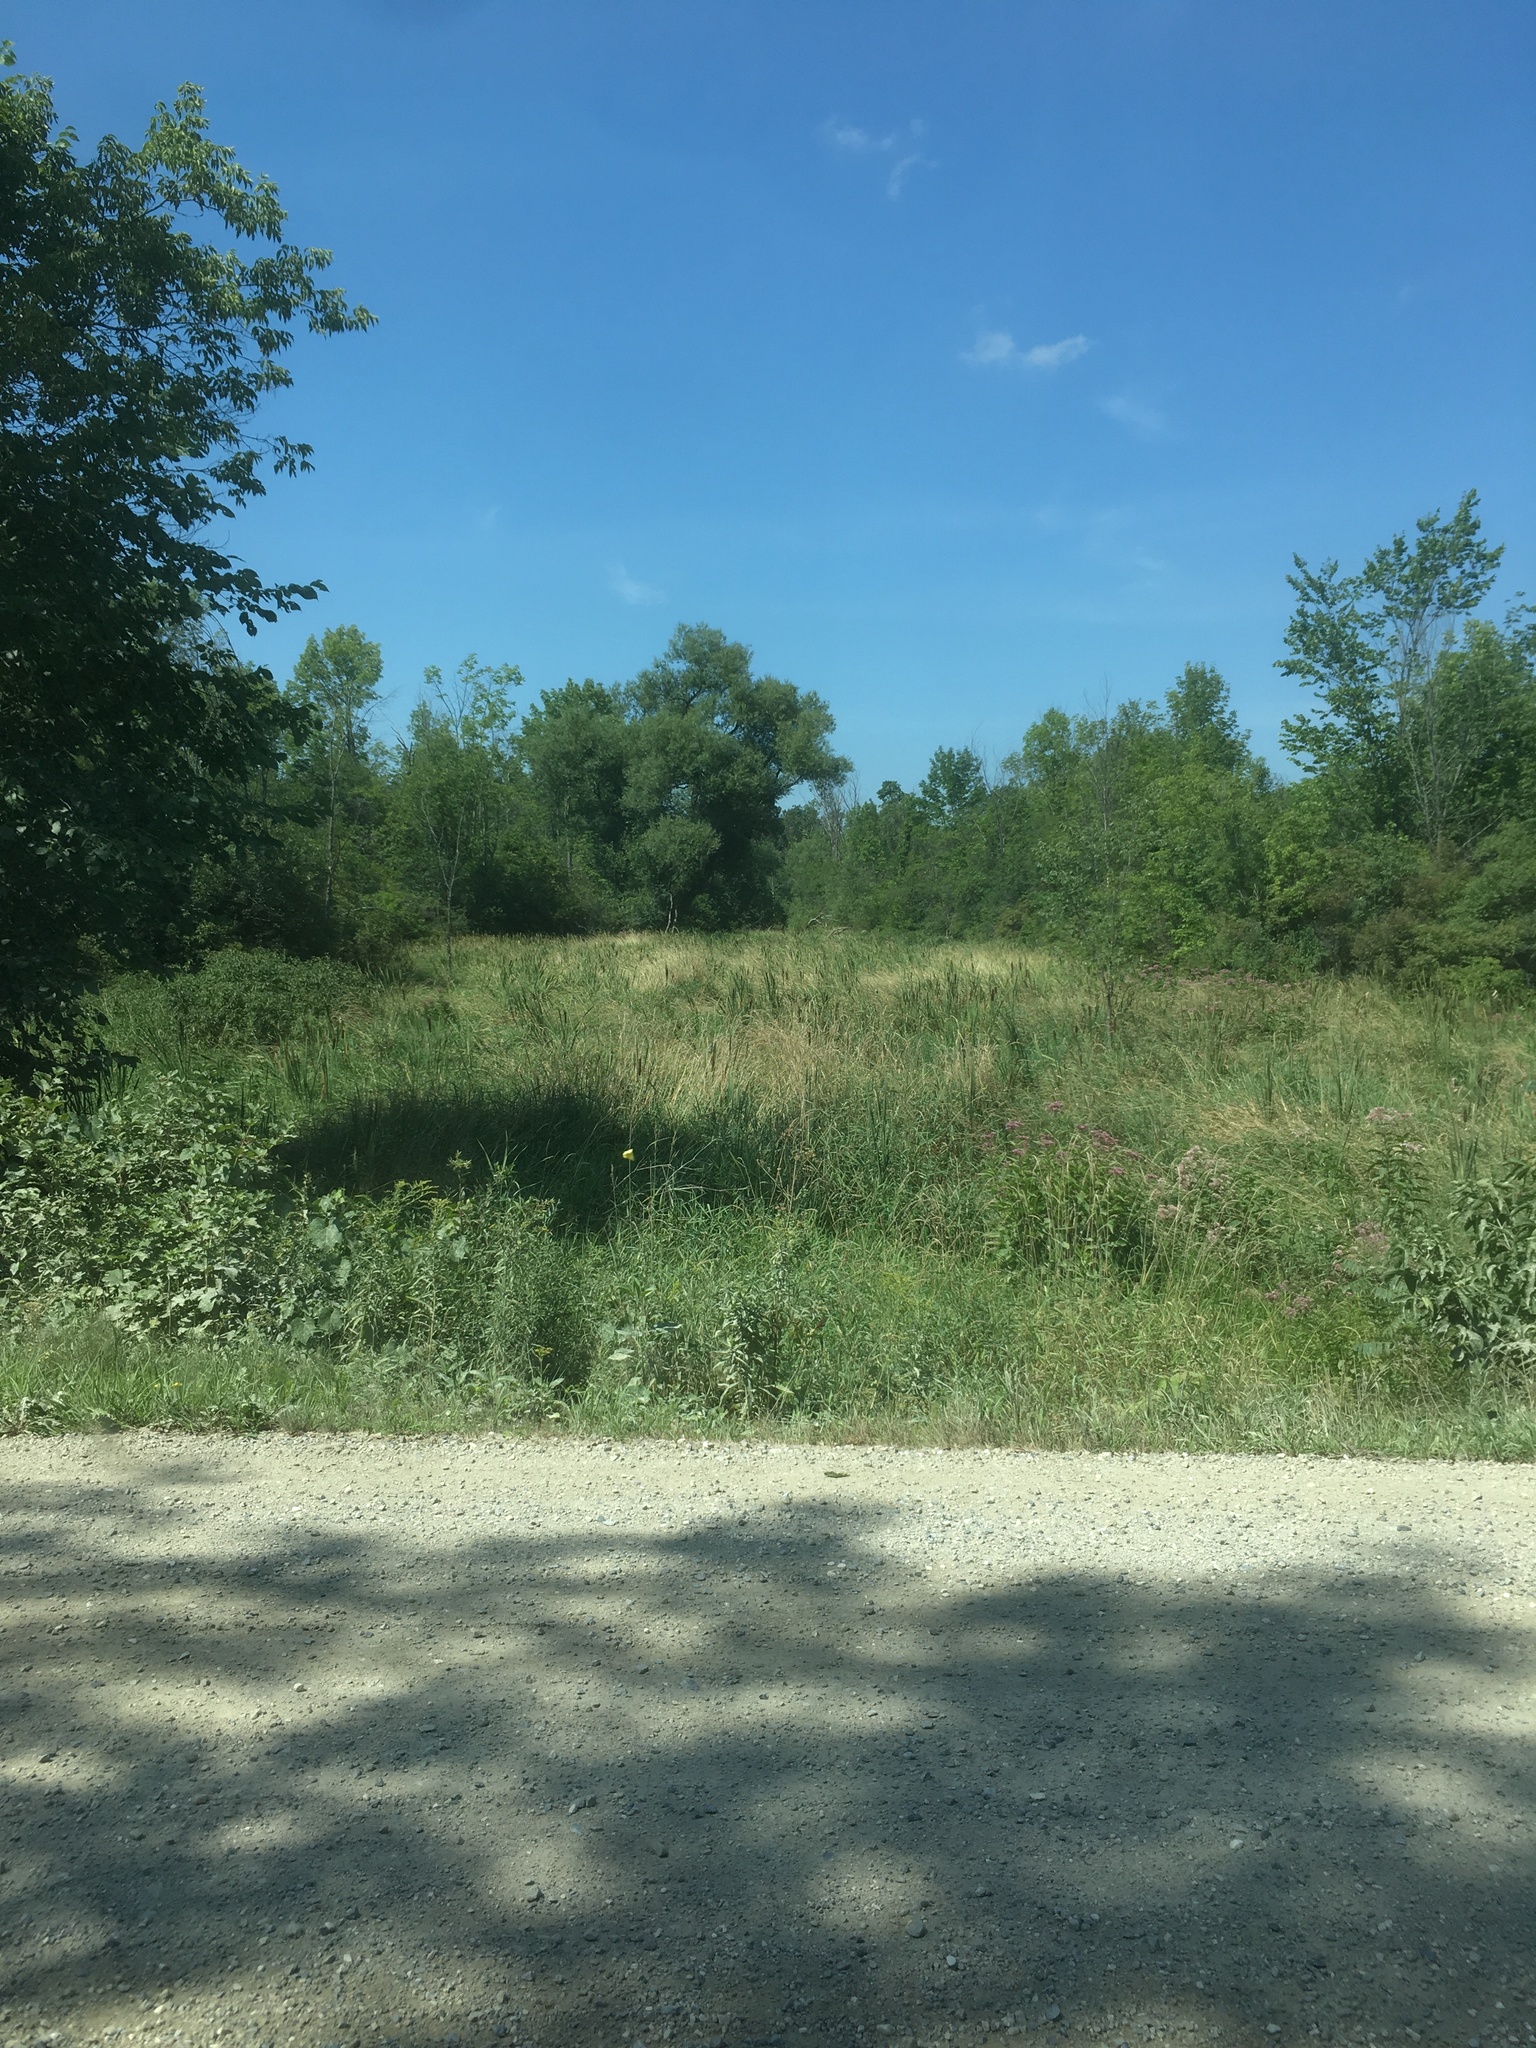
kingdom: Plantae
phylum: Tracheophyta
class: Liliopsida
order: Poales
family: Typhaceae
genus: Typha
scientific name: Typha latifolia
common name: Broadleaf cattail
